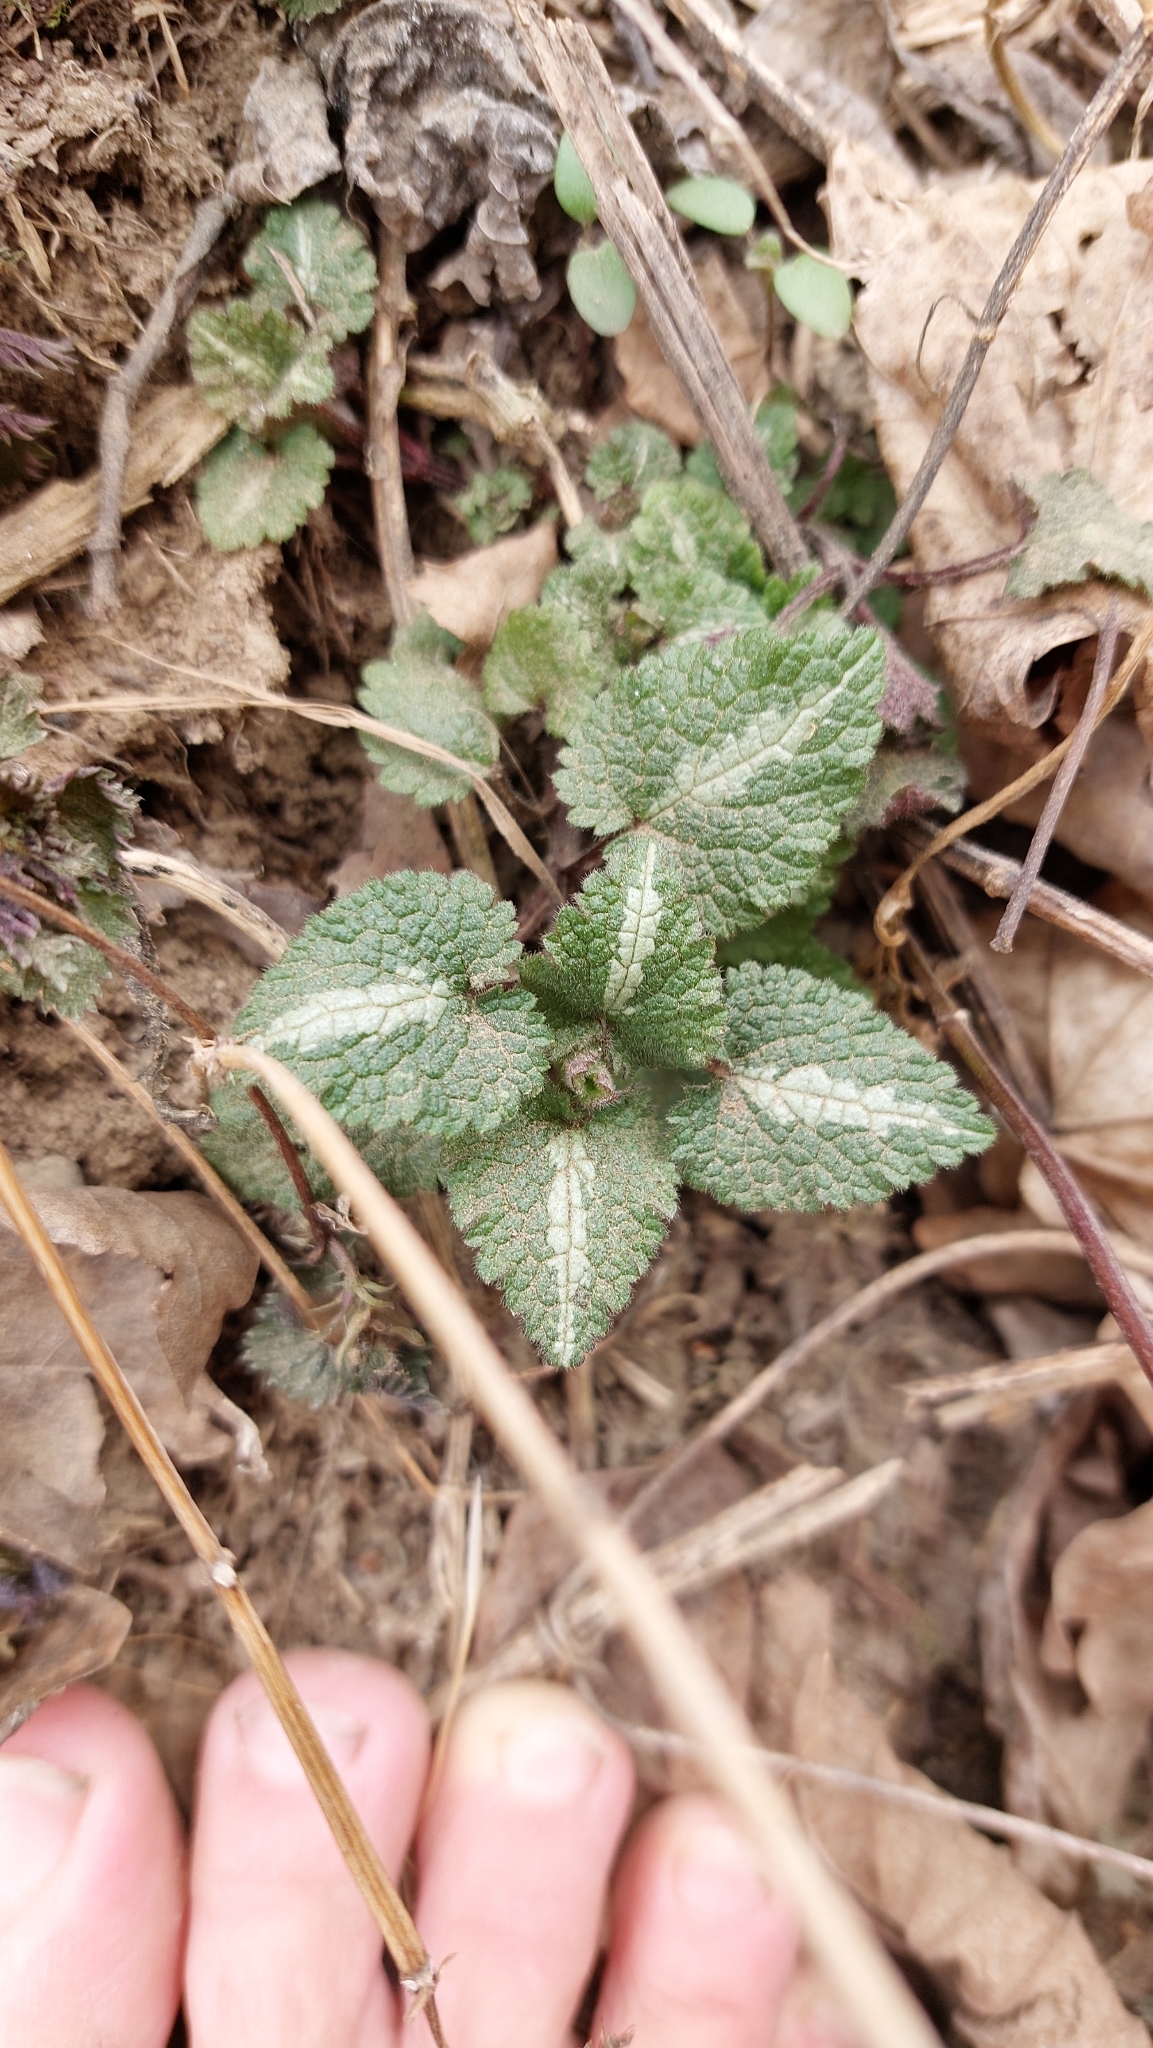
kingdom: Plantae
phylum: Tracheophyta
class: Magnoliopsida
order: Lamiales
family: Lamiaceae
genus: Lamium
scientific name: Lamium maculatum
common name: Spotted dead-nettle
